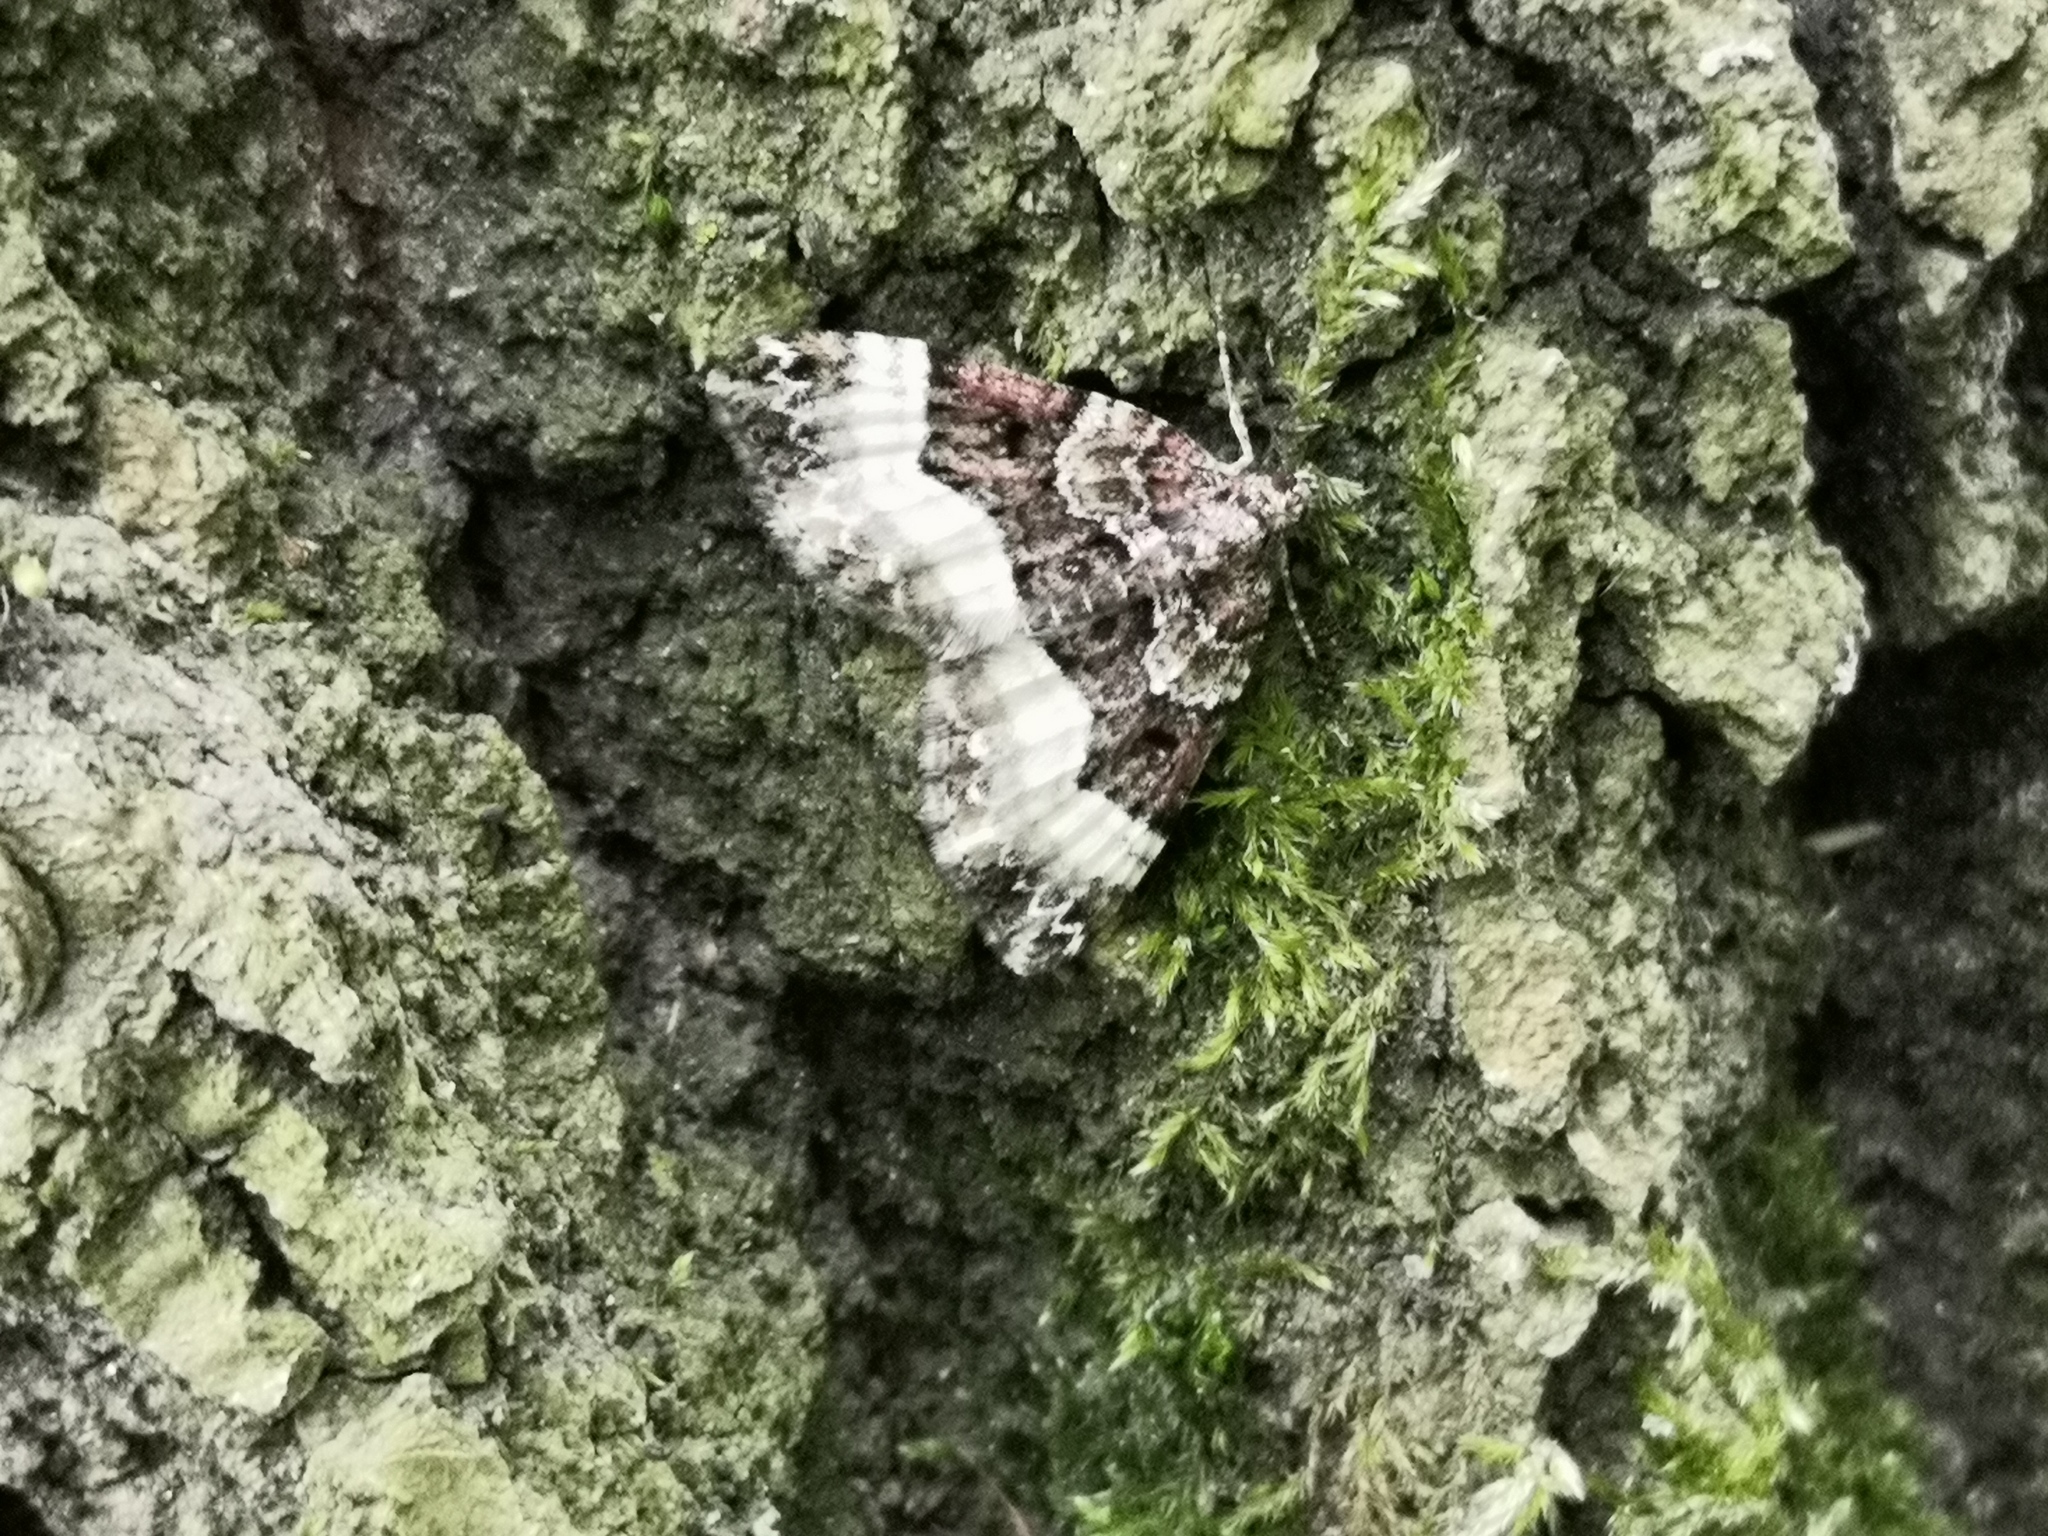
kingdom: Animalia
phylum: Arthropoda
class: Insecta
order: Lepidoptera
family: Geometridae
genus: Euphyia
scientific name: Euphyia unangulata
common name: Sharp-angled carpet
